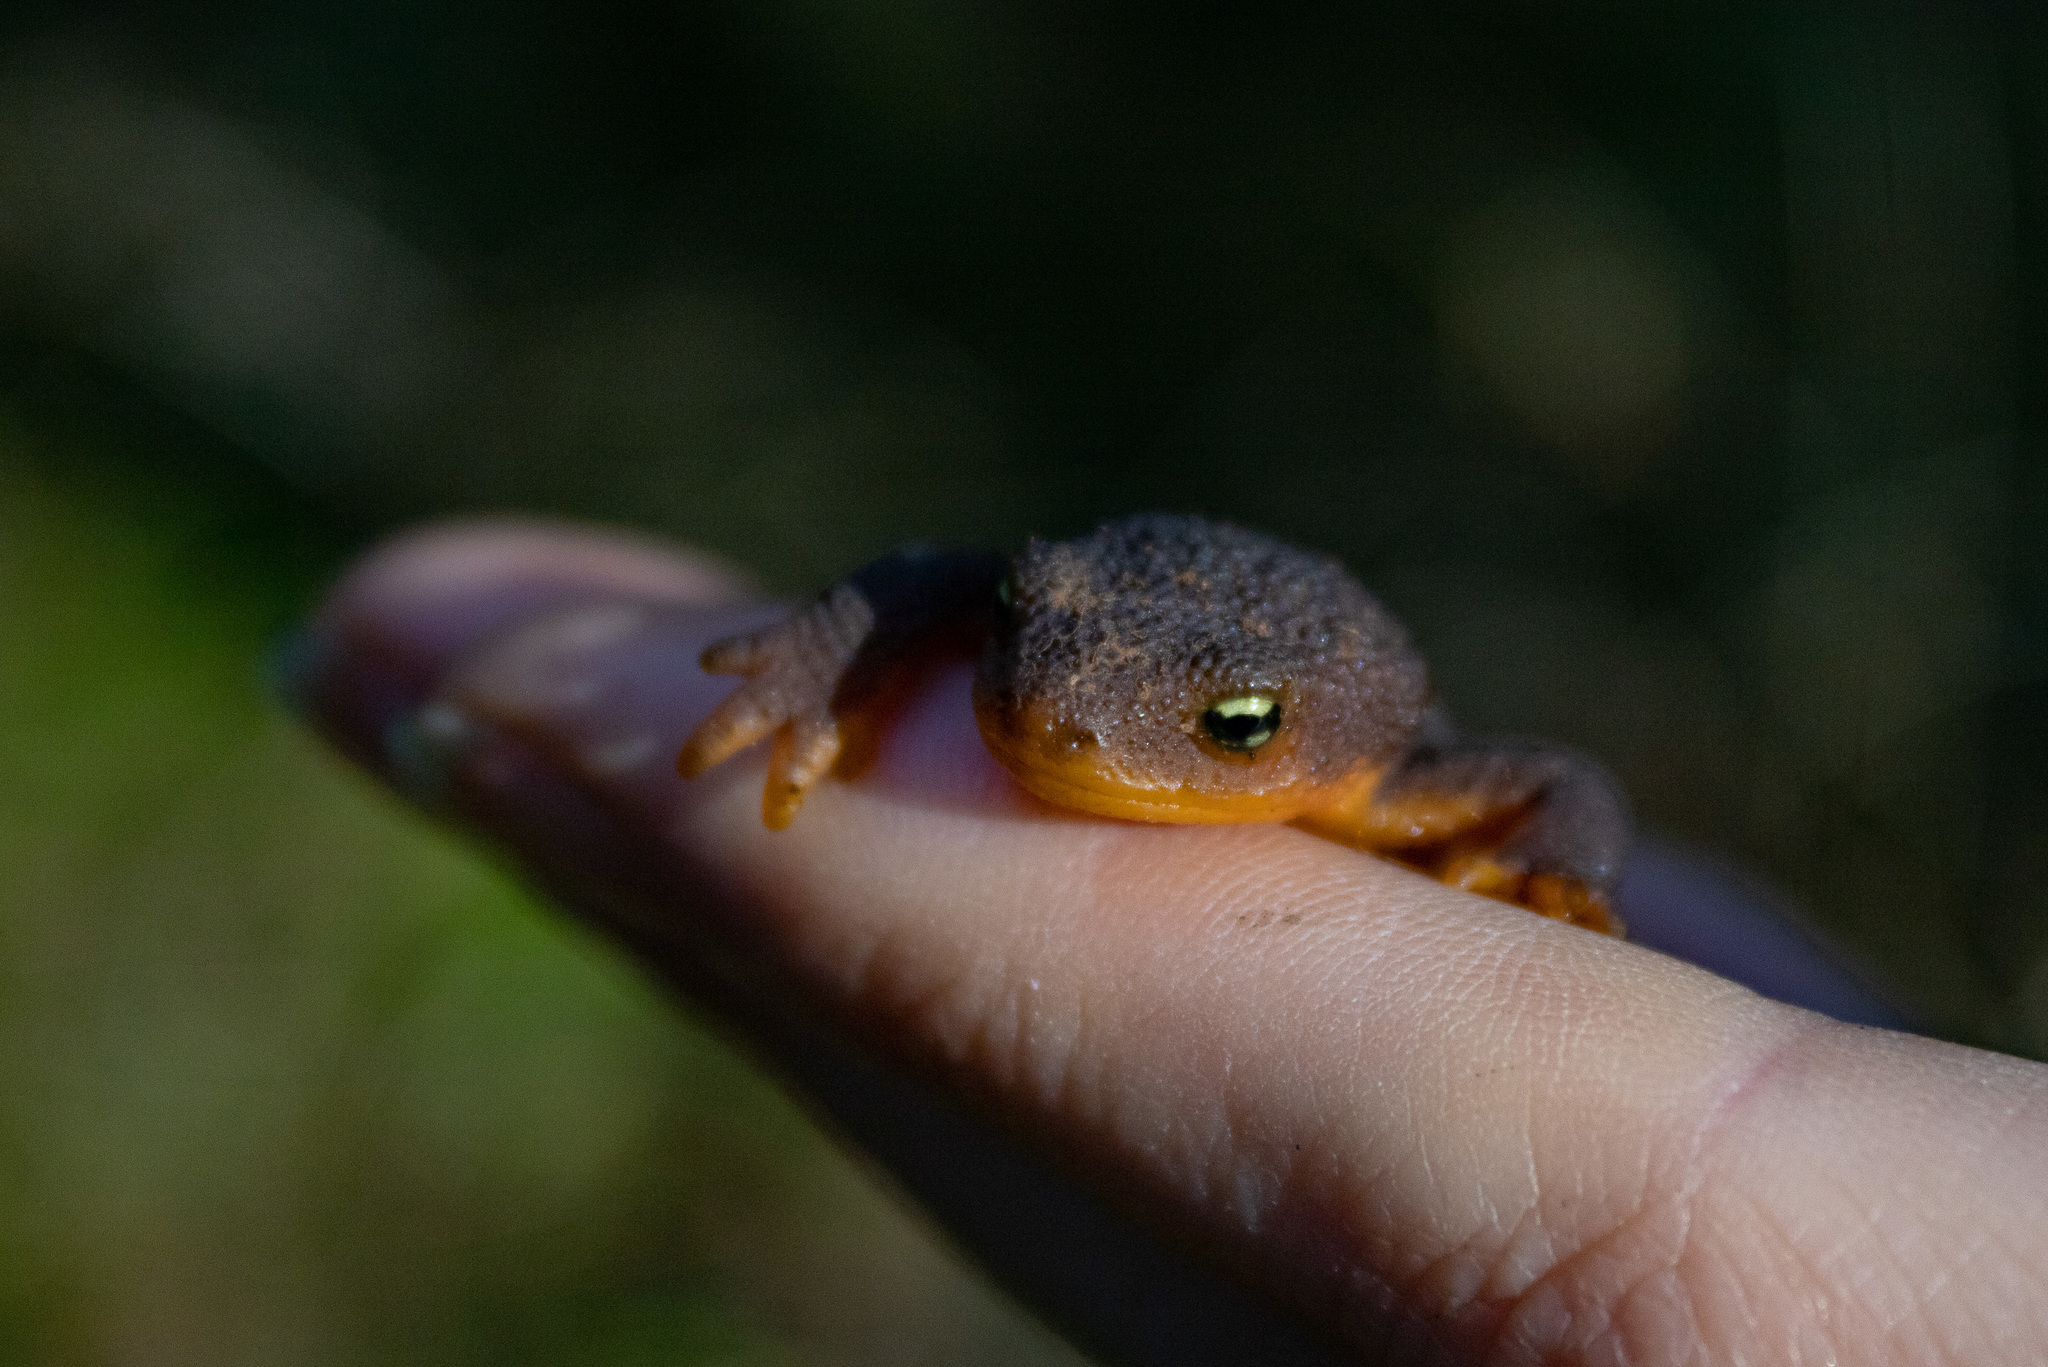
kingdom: Animalia
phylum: Chordata
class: Amphibia
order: Caudata
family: Salamandridae
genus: Taricha
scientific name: Taricha granulosa
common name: Roughskin newt
